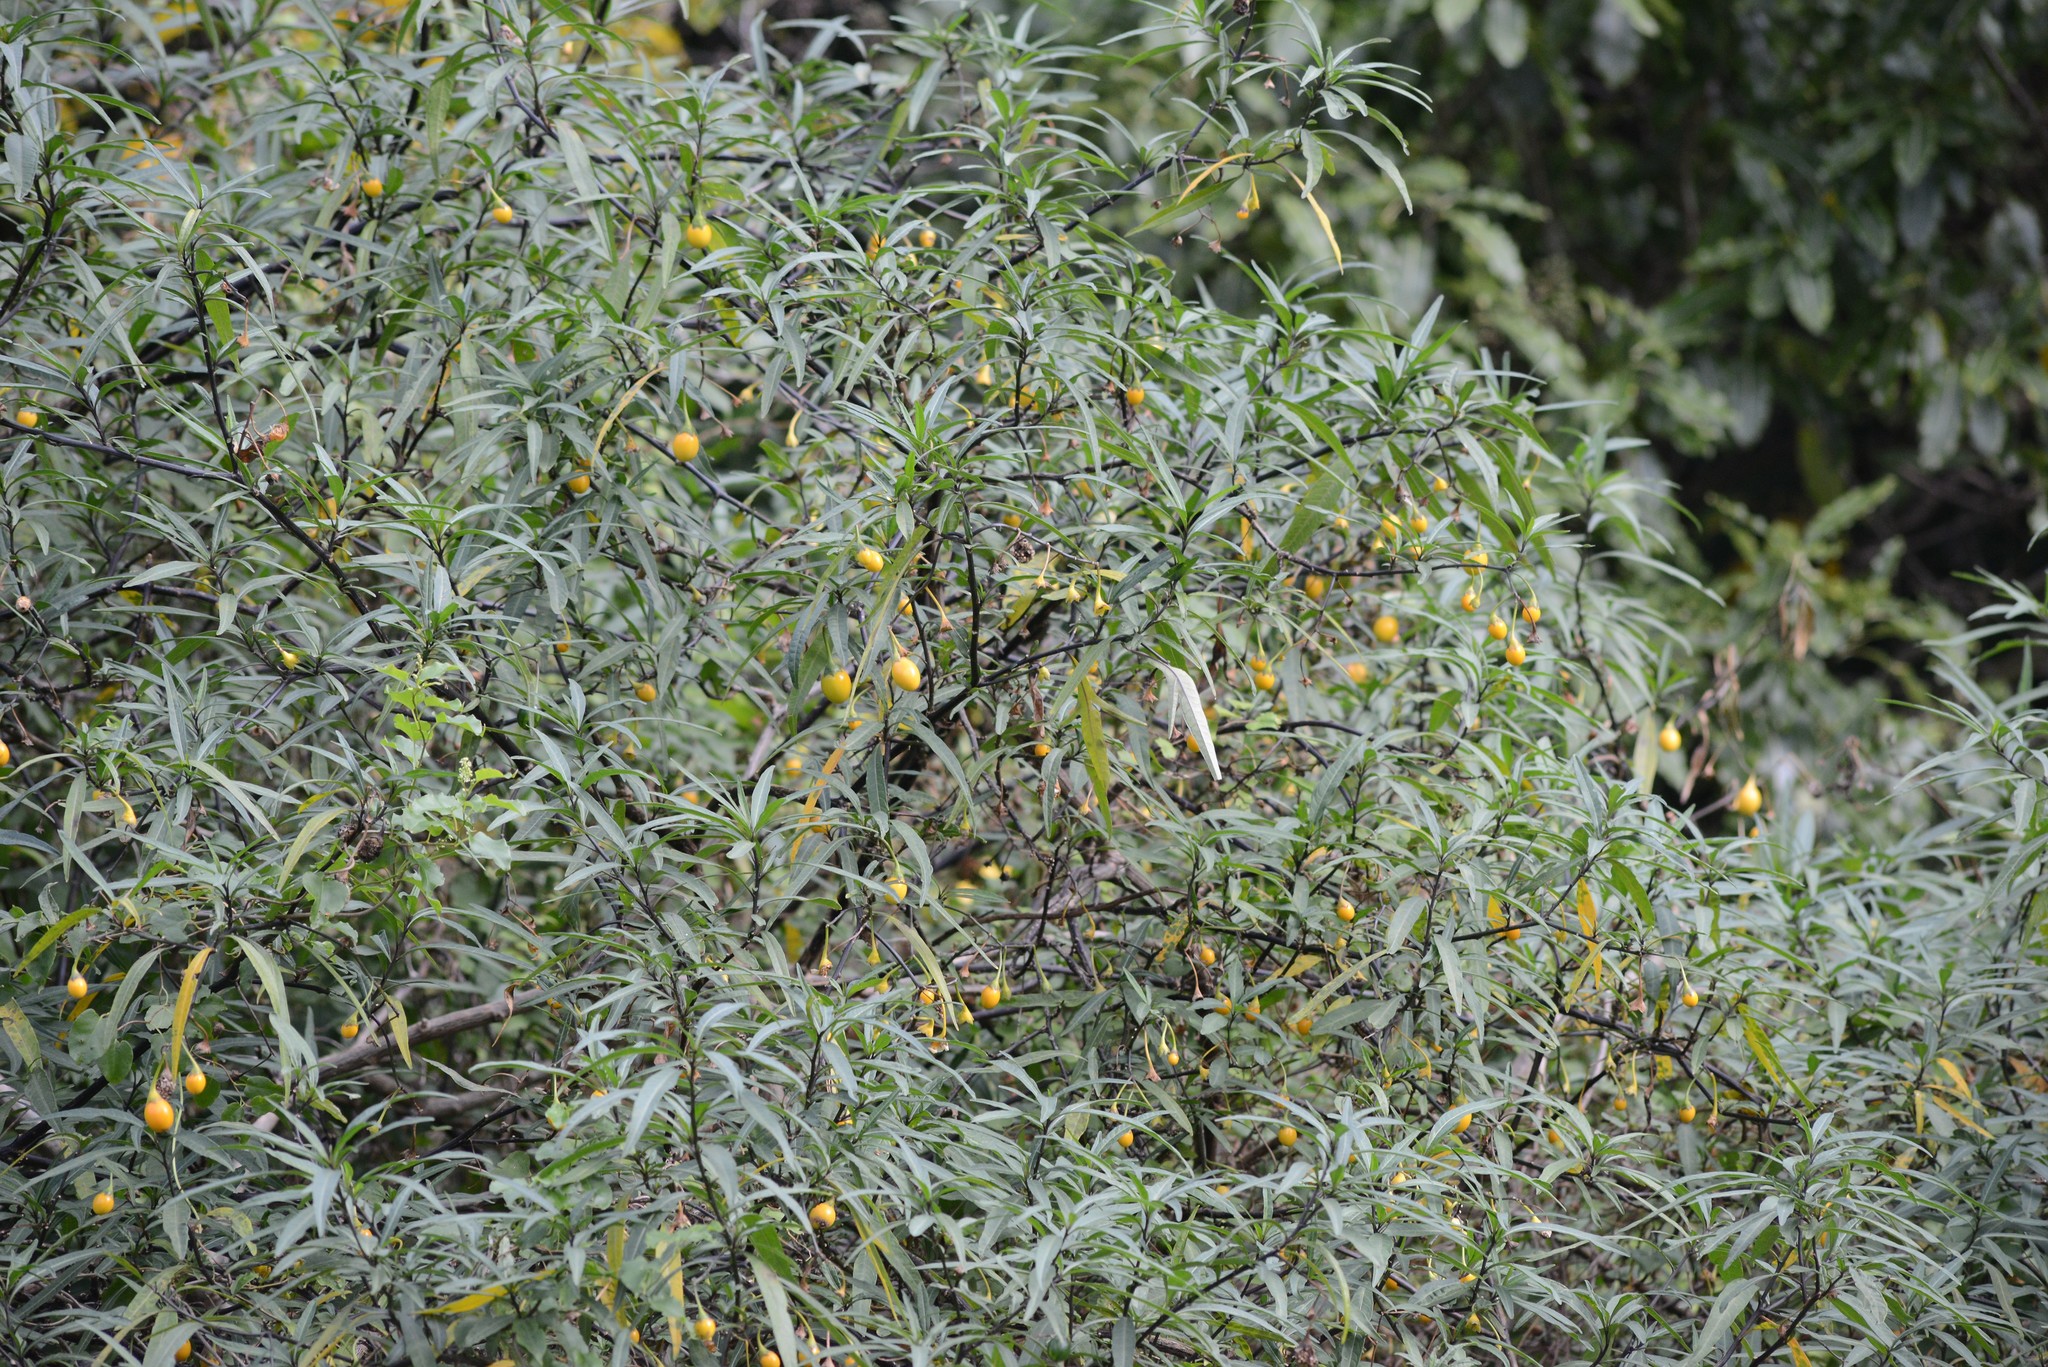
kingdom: Plantae
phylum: Tracheophyta
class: Magnoliopsida
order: Solanales
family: Solanaceae
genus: Solanum
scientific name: Solanum
